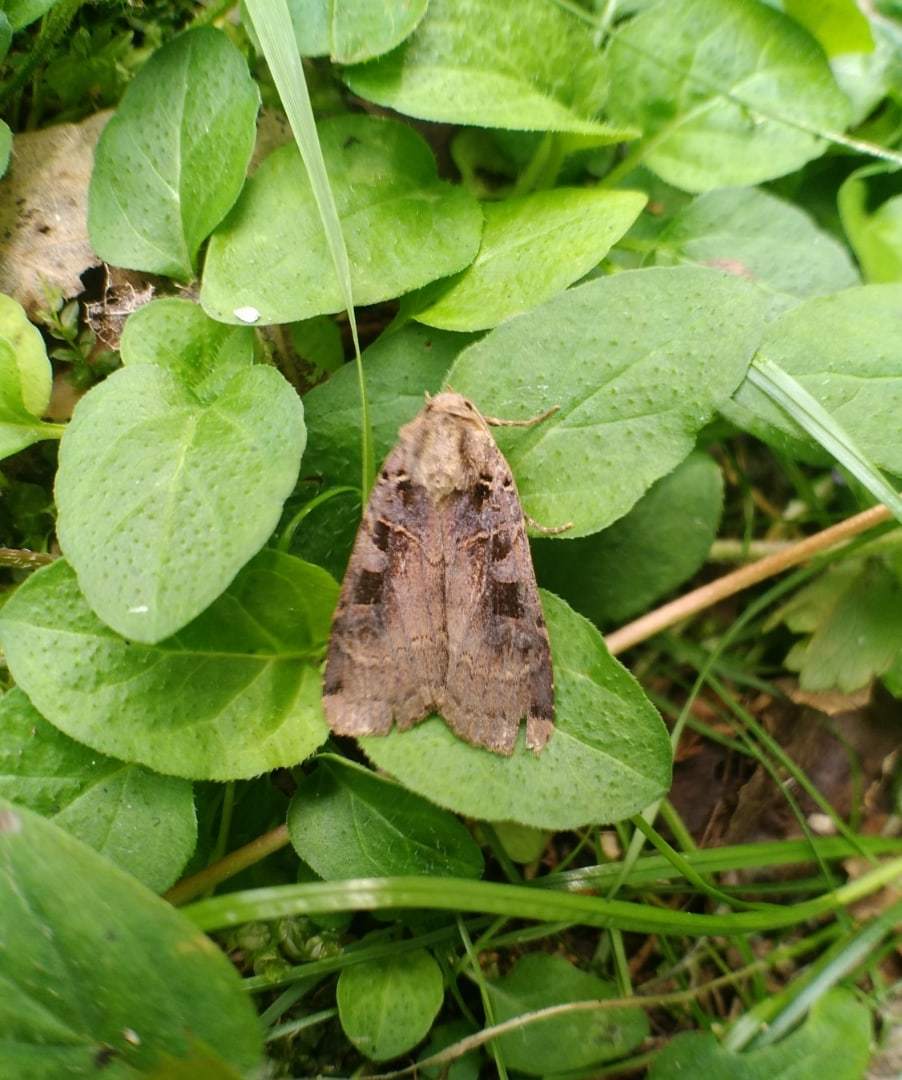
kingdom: Animalia
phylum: Arthropoda
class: Insecta
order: Lepidoptera
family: Noctuidae
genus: Xestia
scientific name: Xestia ditrapezium
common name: Triple-spotted clay
